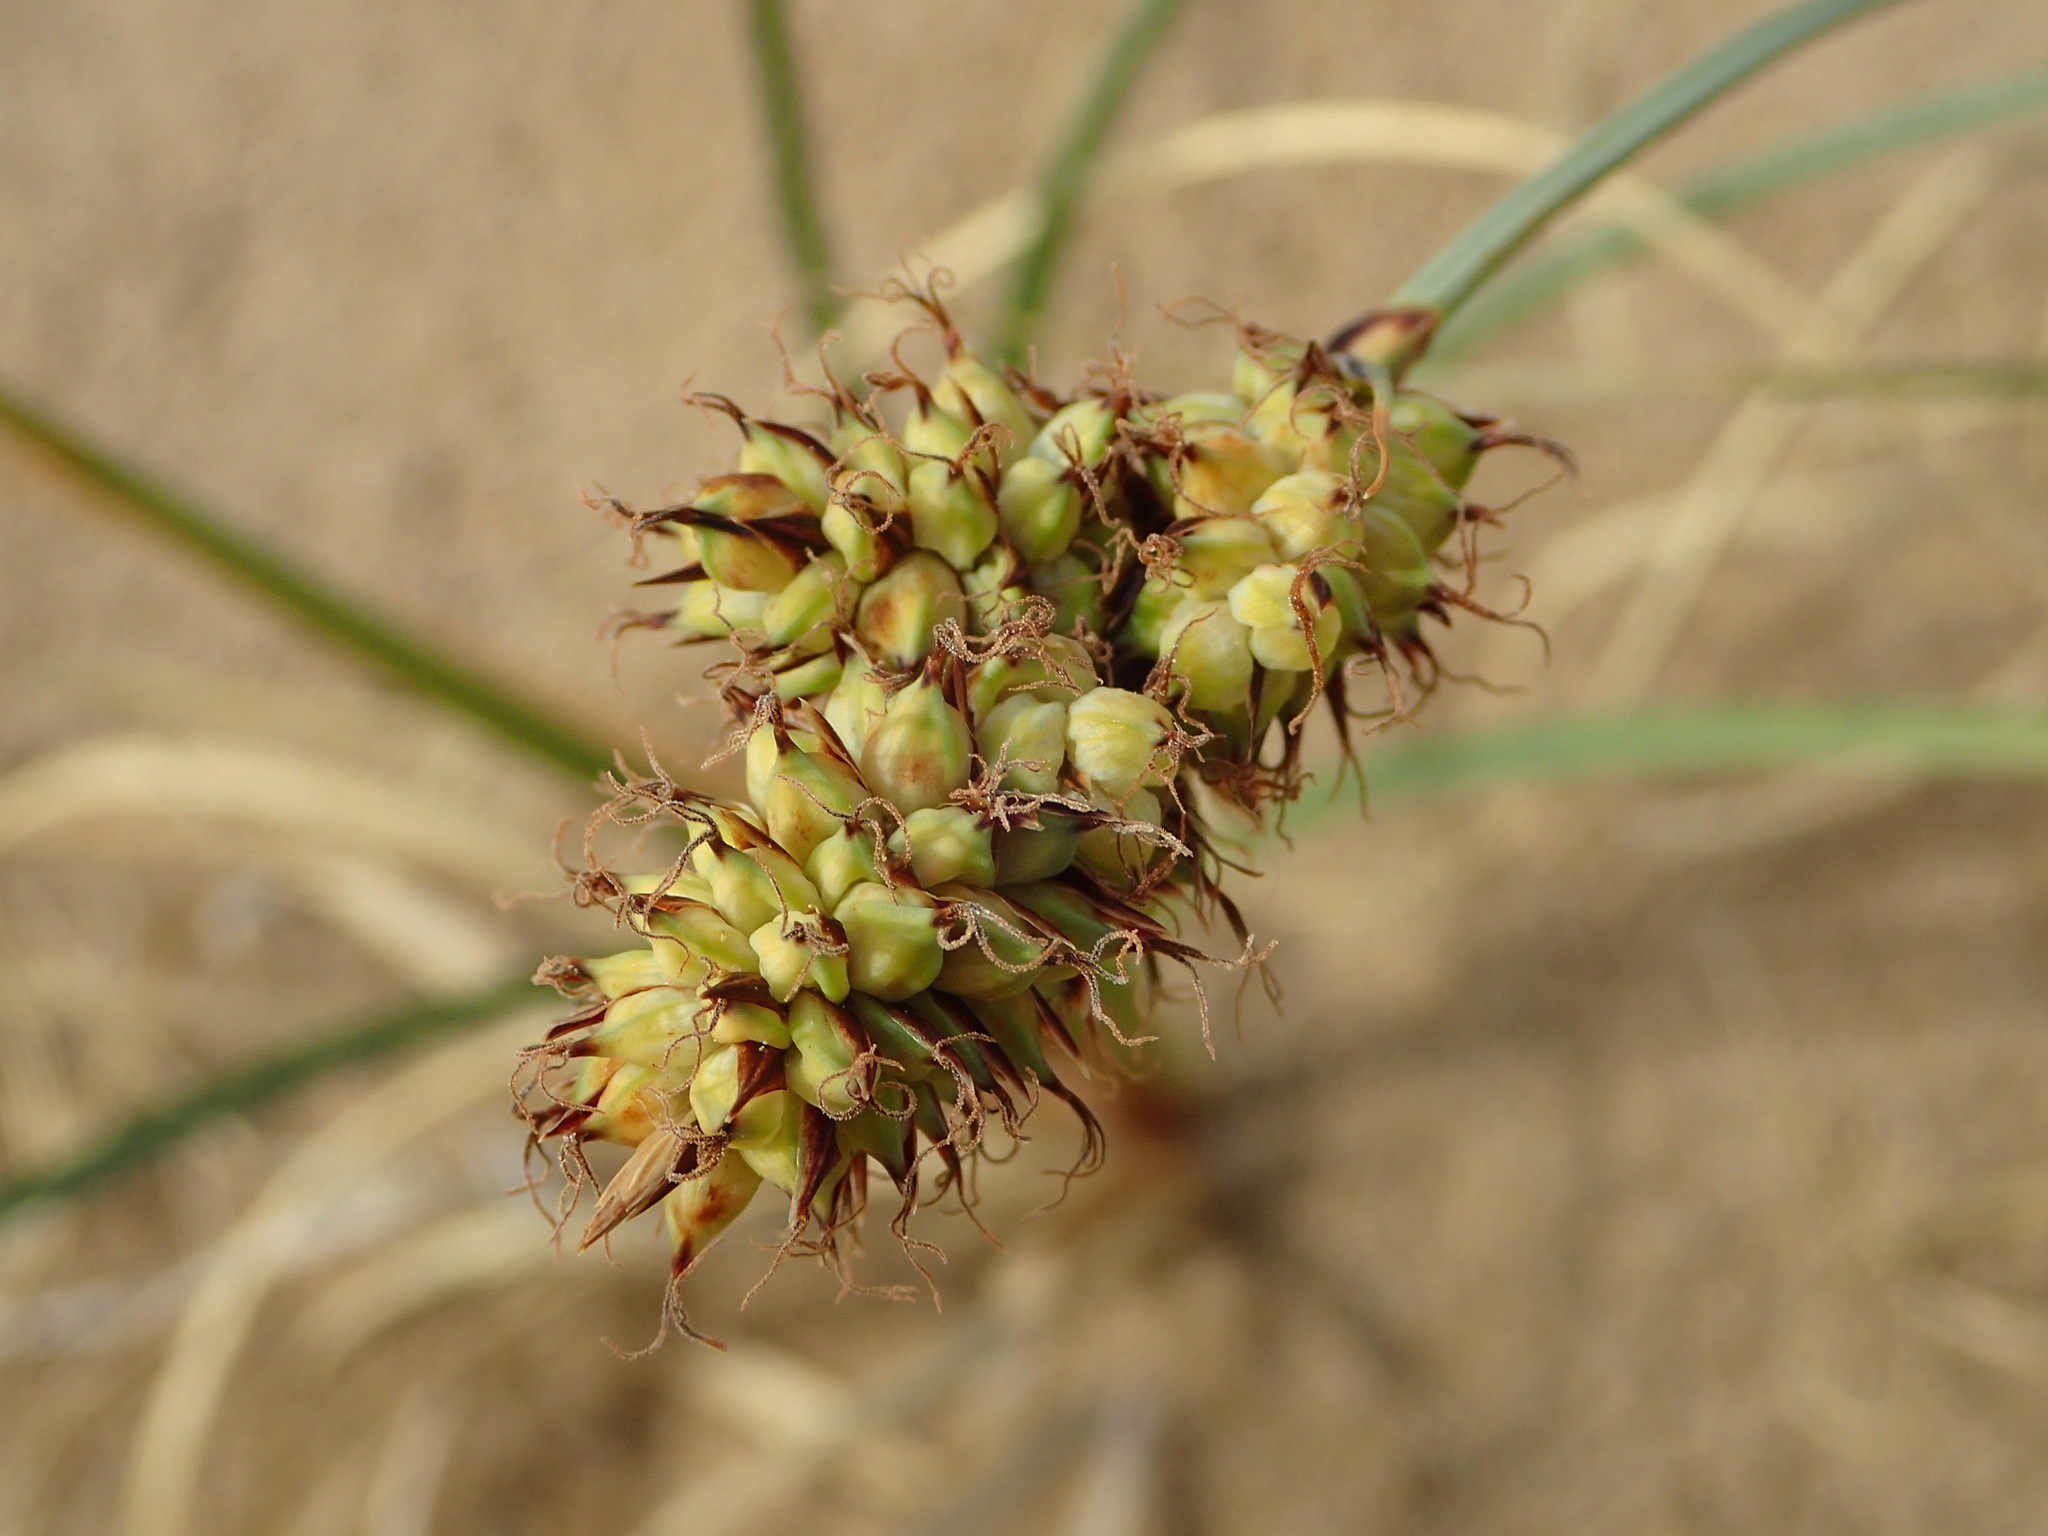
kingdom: Plantae
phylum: Tracheophyta
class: Liliopsida
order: Poales
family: Cyperaceae
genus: Carex
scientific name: Carex sabulosa
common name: Baikal sedge
